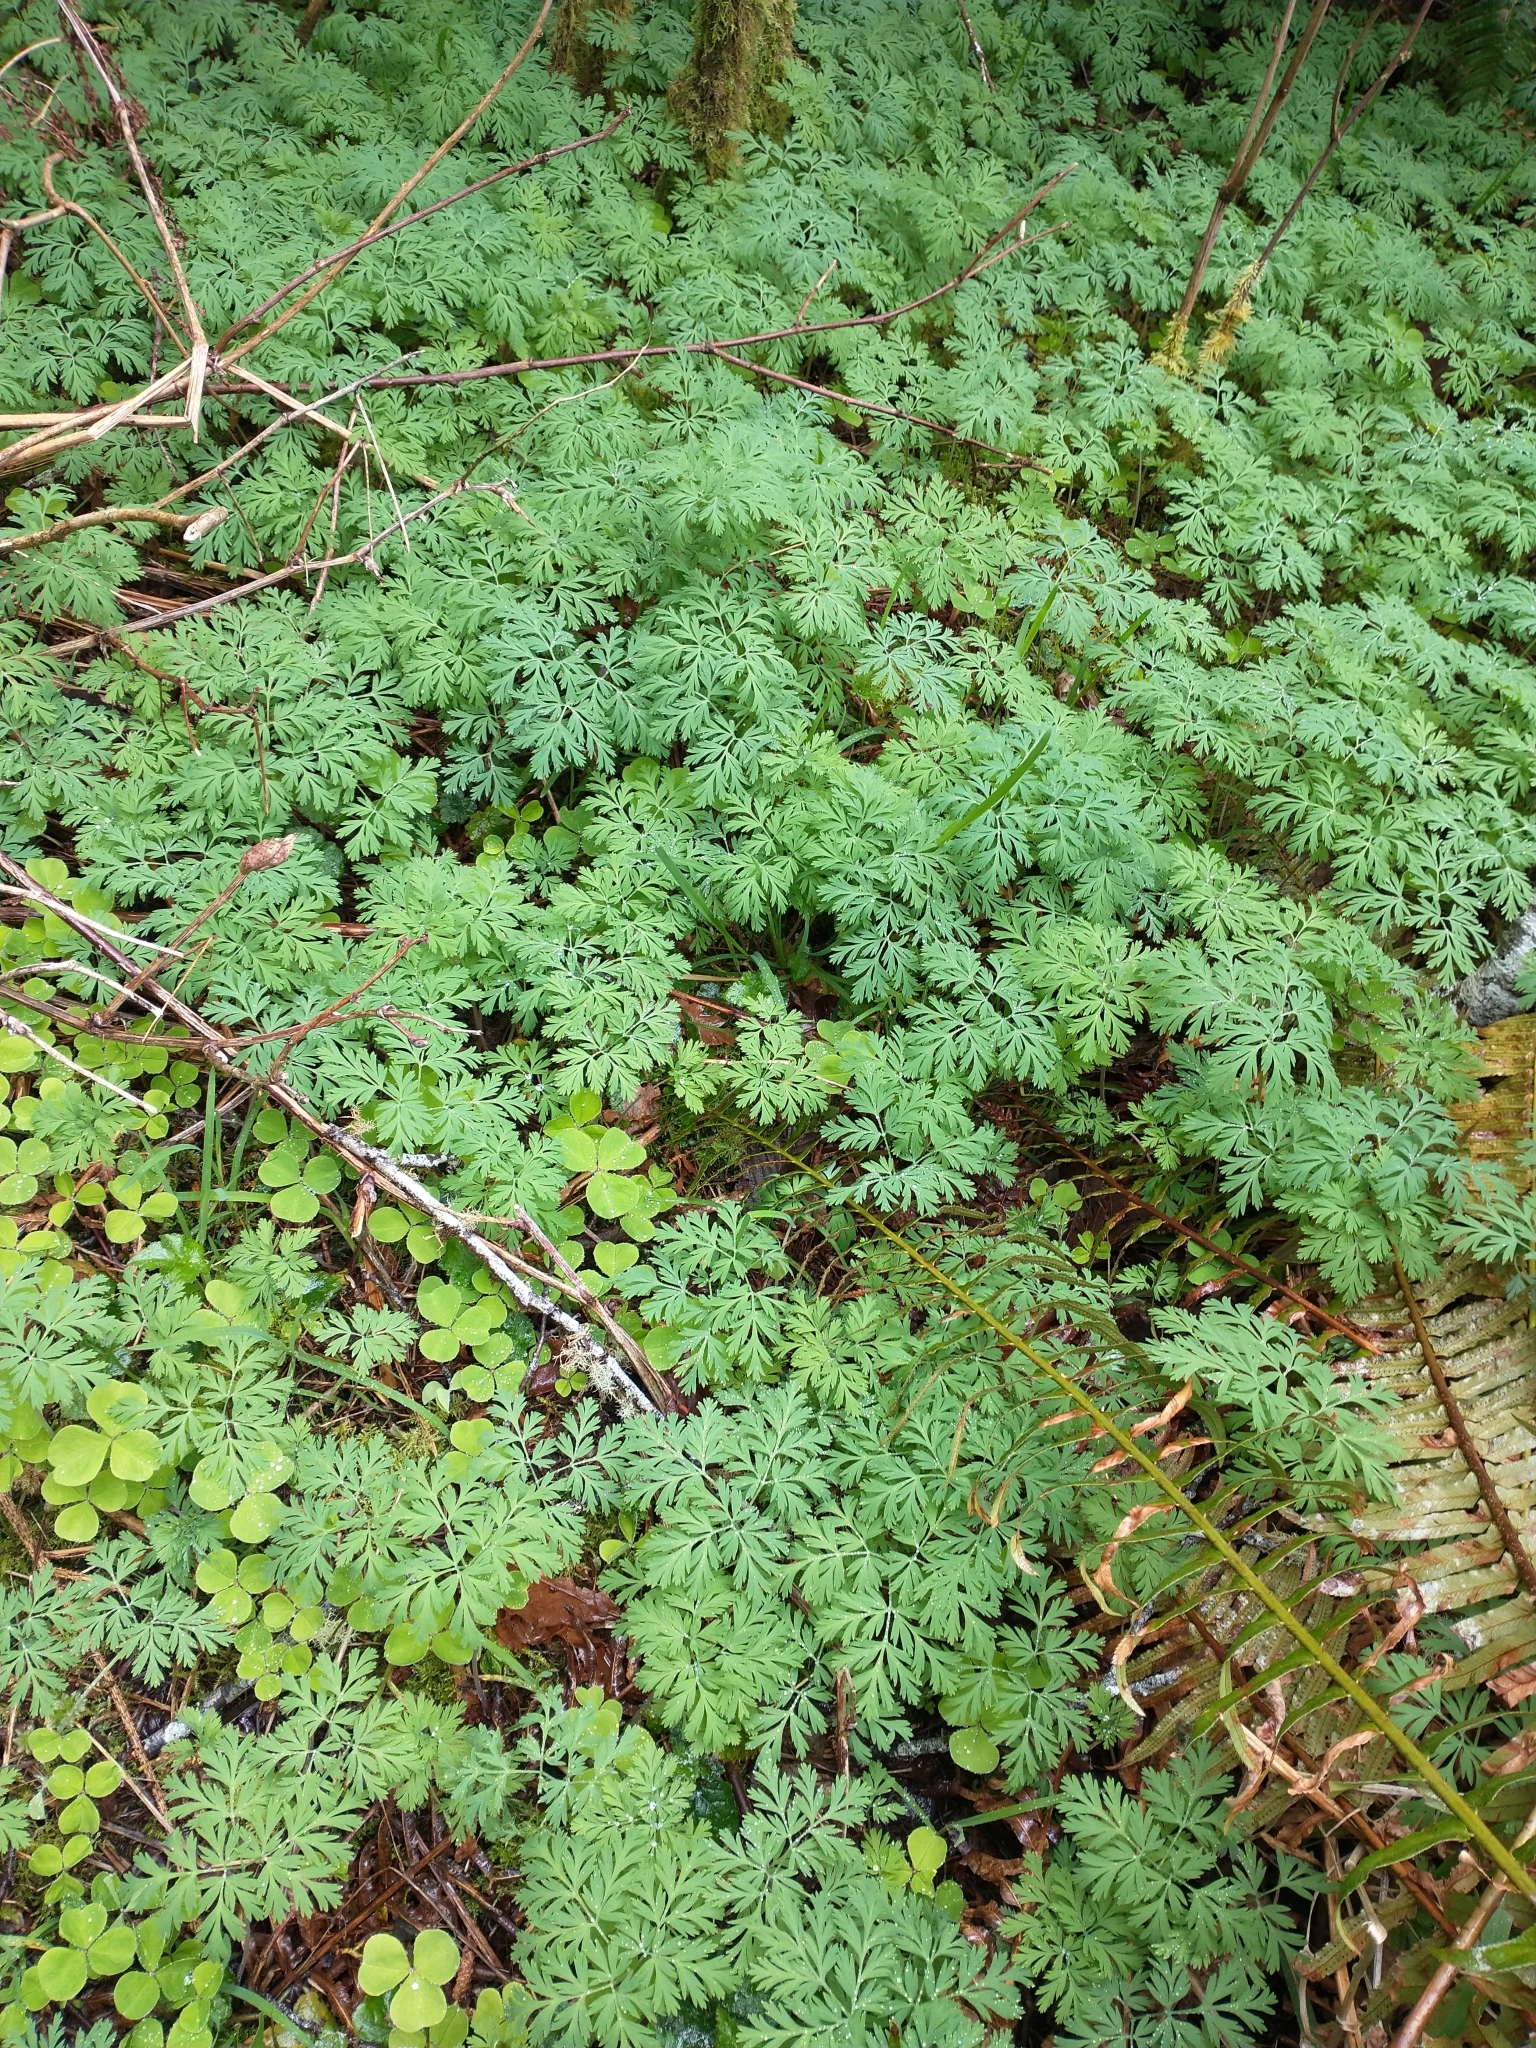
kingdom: Plantae
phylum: Tracheophyta
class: Magnoliopsida
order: Ranunculales
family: Papaveraceae
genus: Dicentra
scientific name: Dicentra formosa
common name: Bleeding-heart
